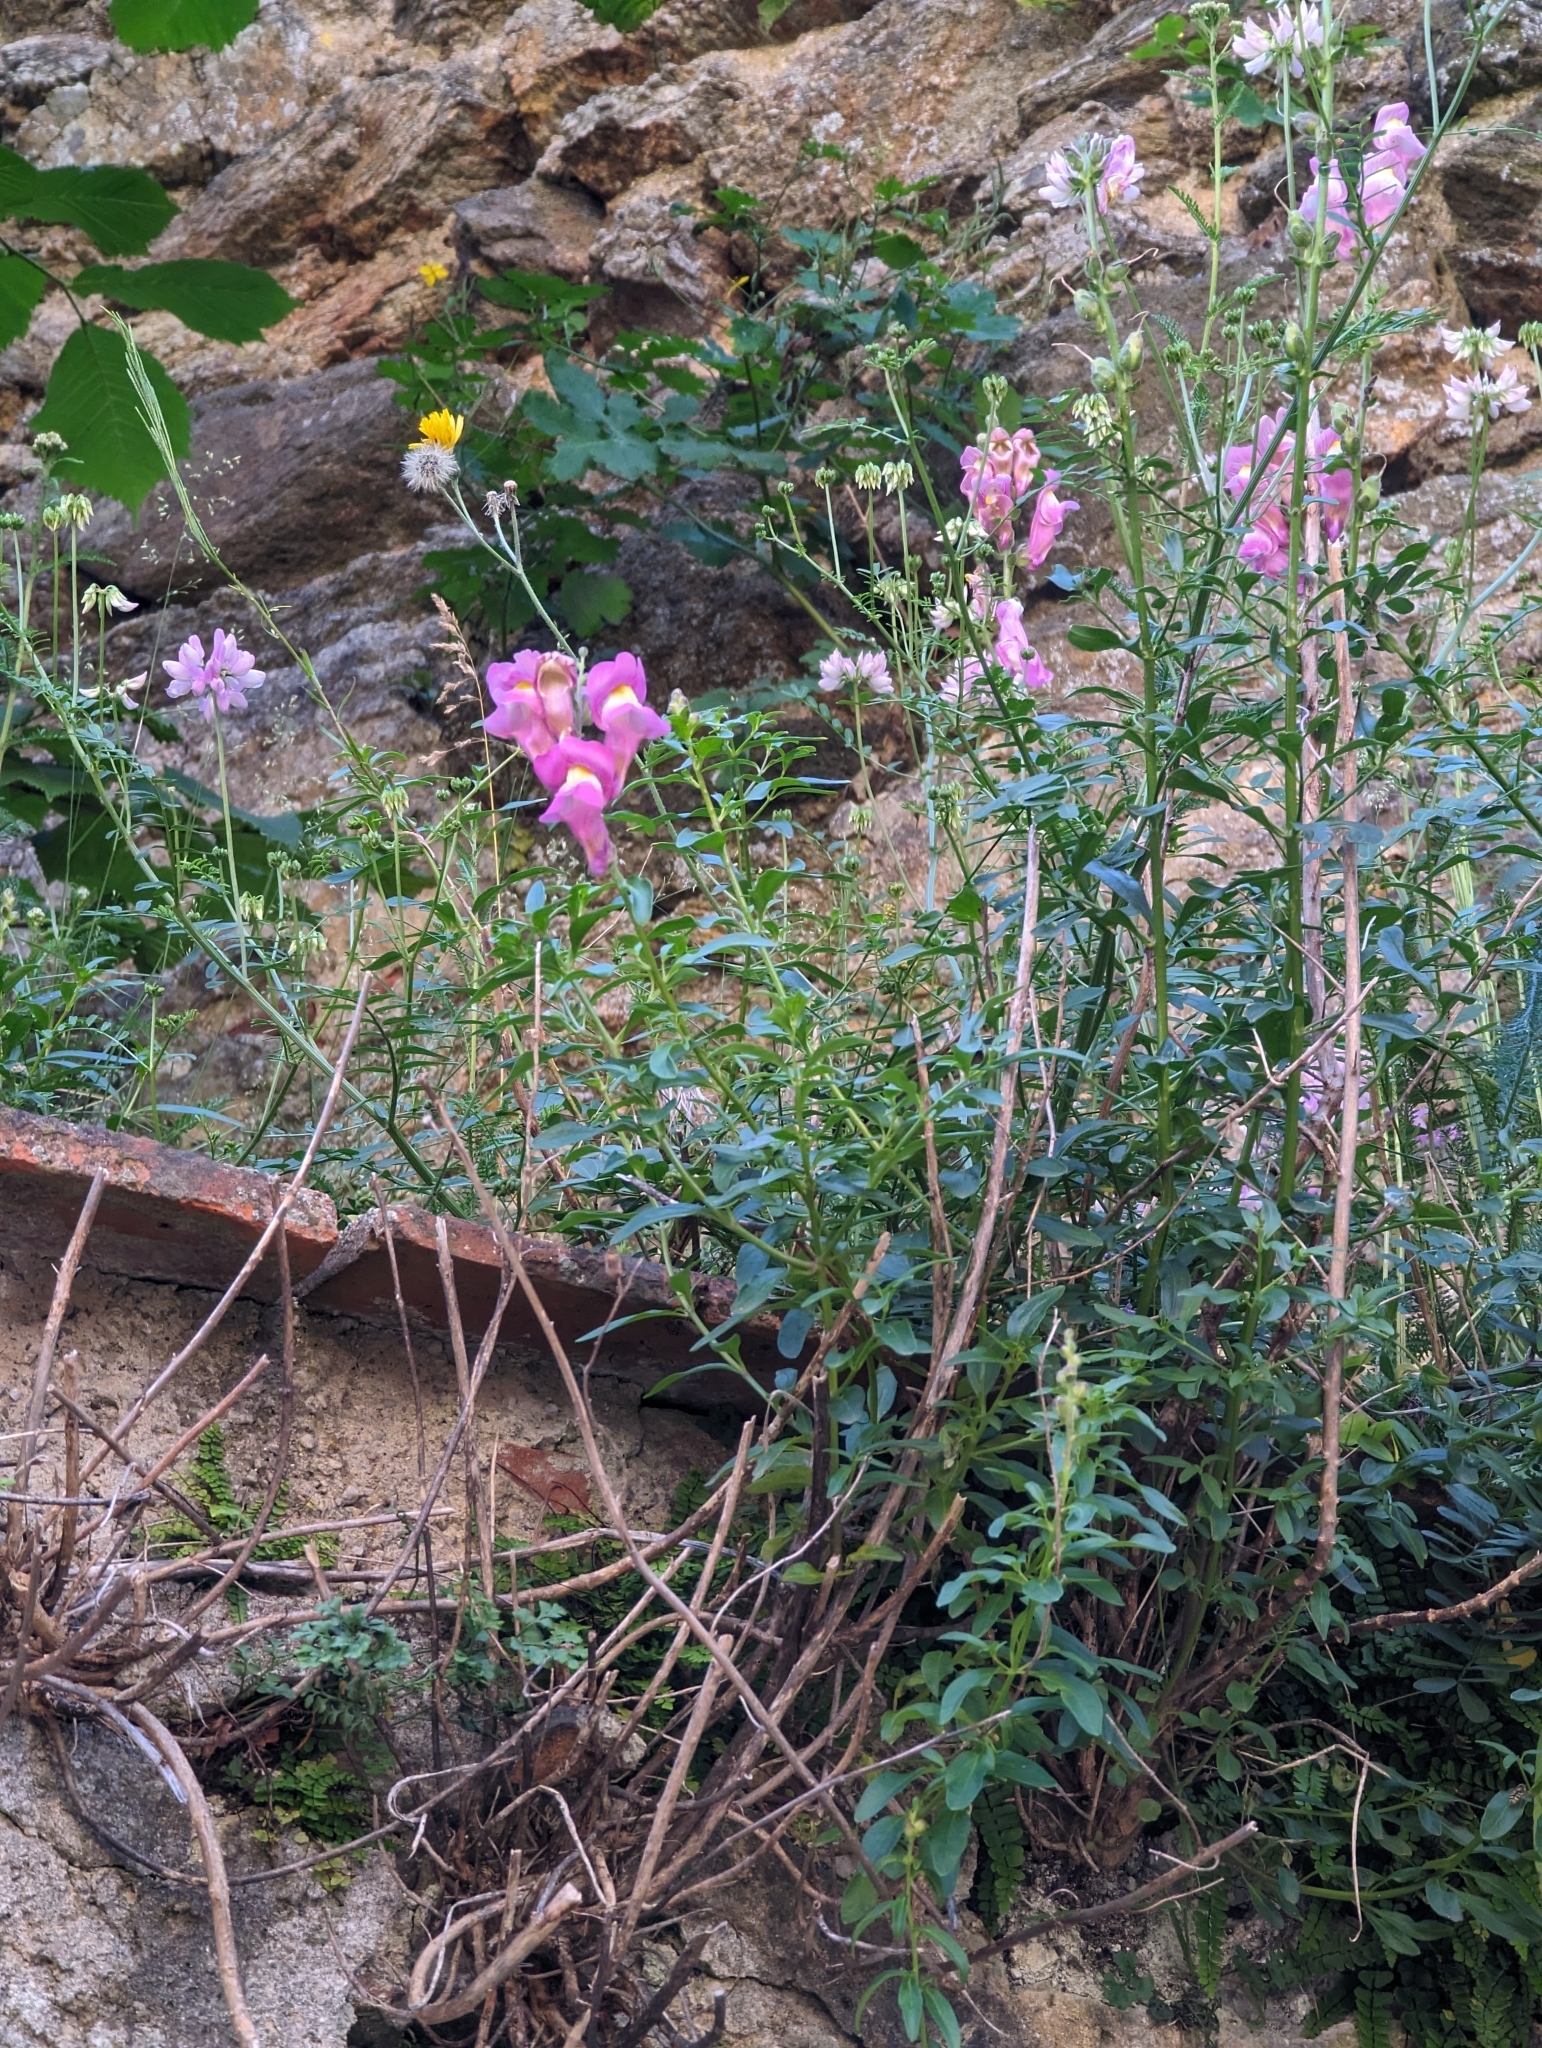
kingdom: Plantae
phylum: Tracheophyta
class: Magnoliopsida
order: Lamiales
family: Plantaginaceae
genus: Antirrhinum
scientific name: Antirrhinum majus
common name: Snapdragon
